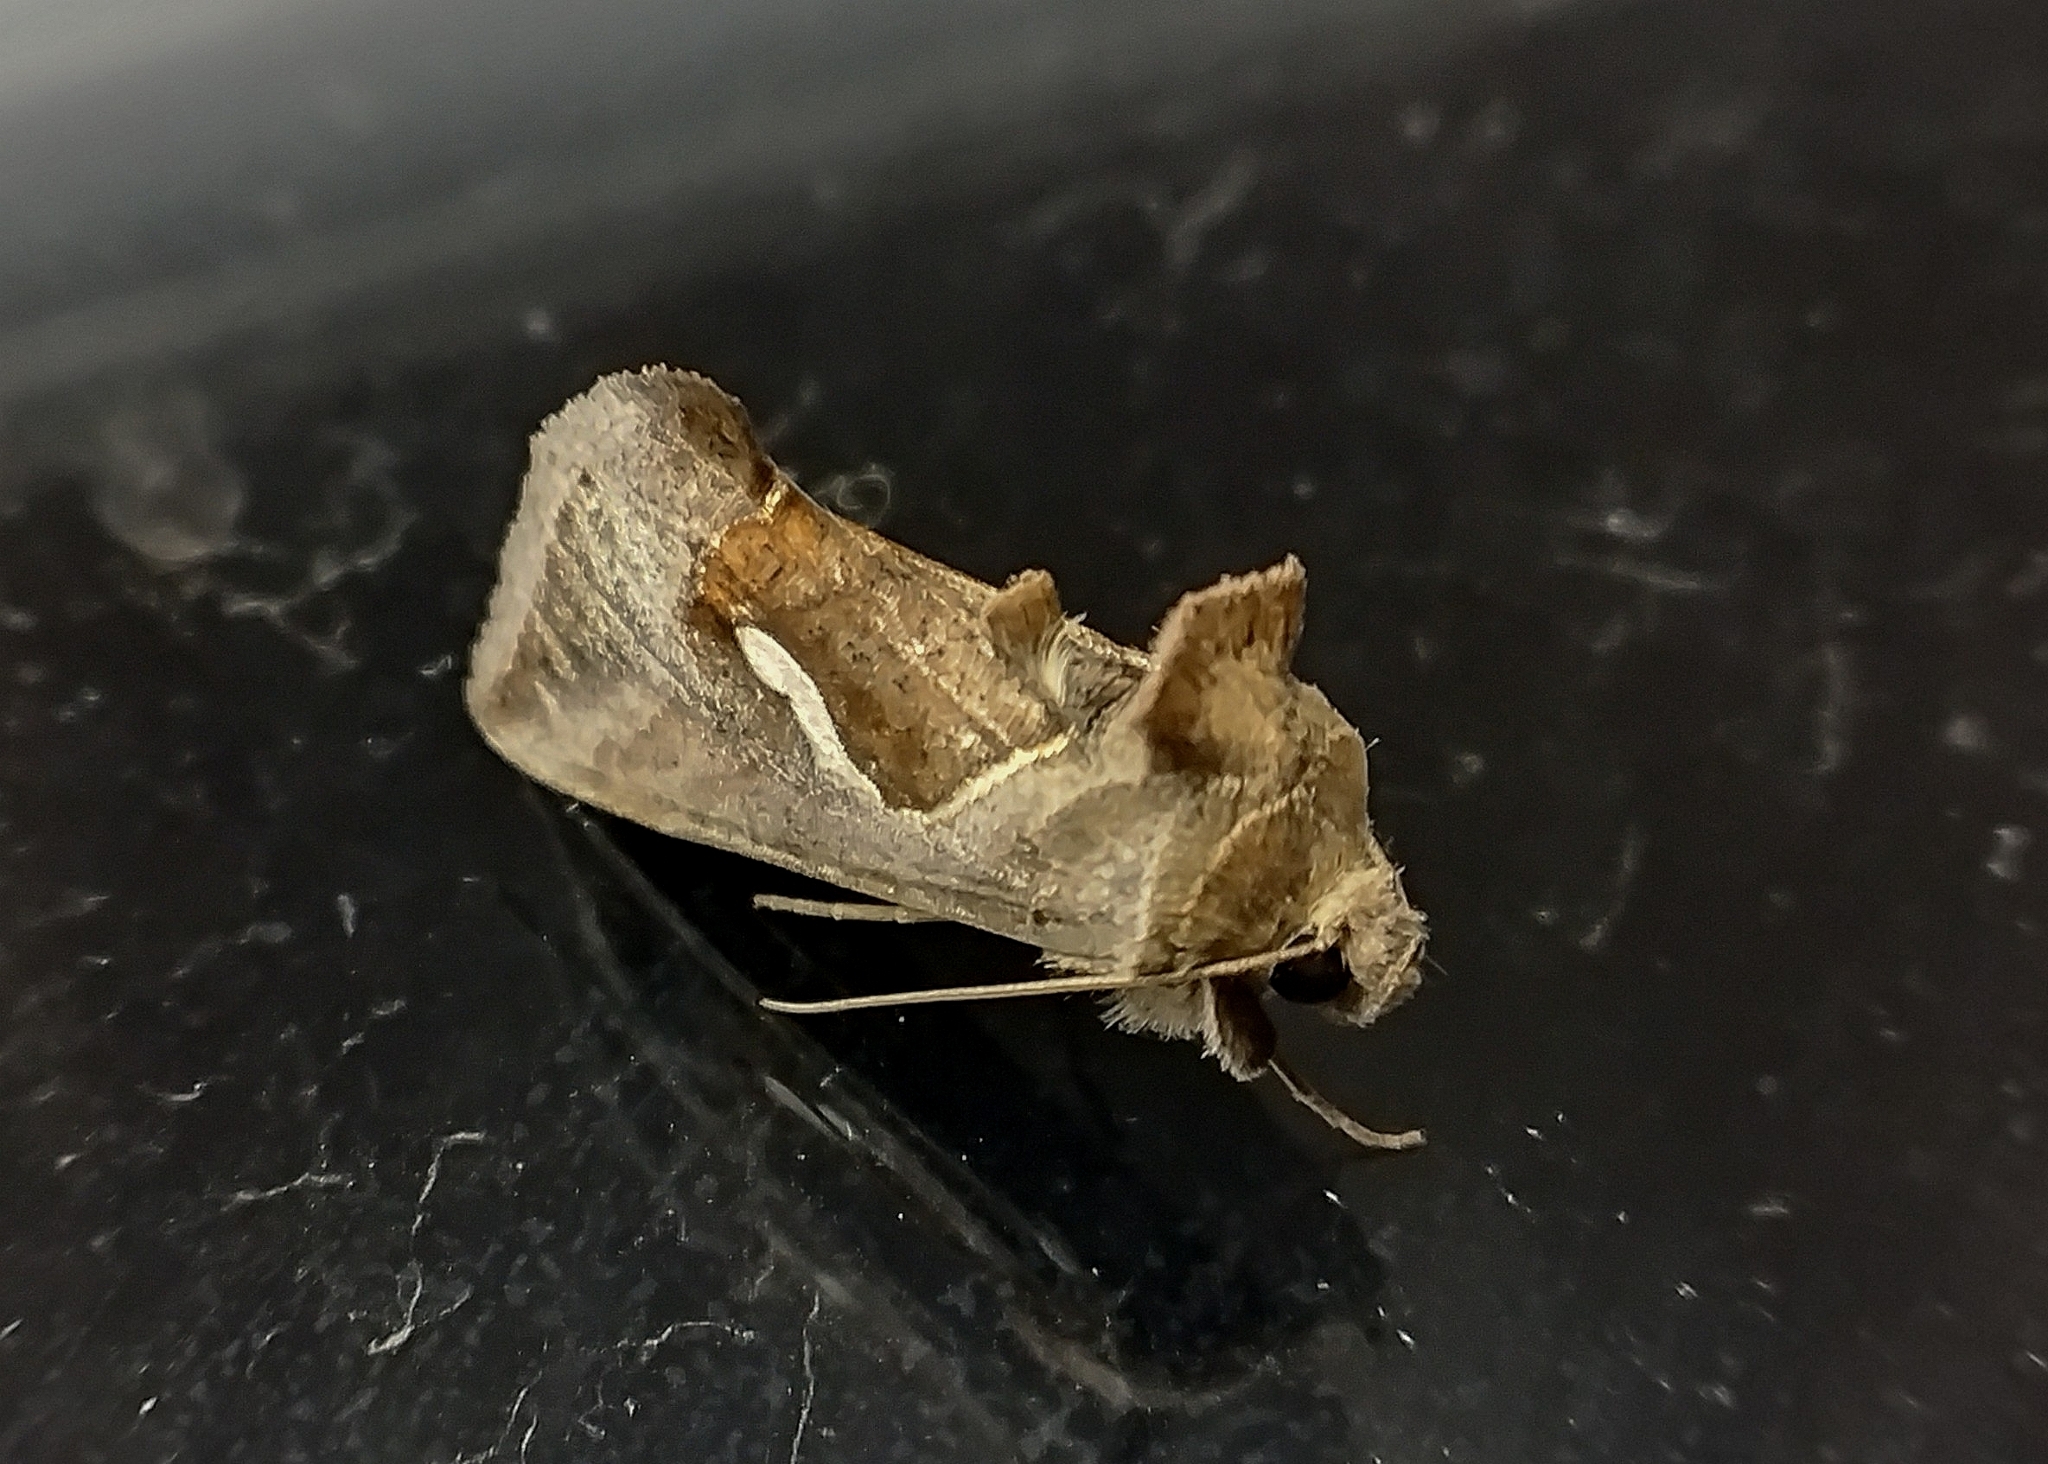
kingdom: Animalia
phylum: Arthropoda
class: Insecta
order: Lepidoptera
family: Noctuidae
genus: Macdunnoughia
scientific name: Macdunnoughia confusa
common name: Dewick's plusia
